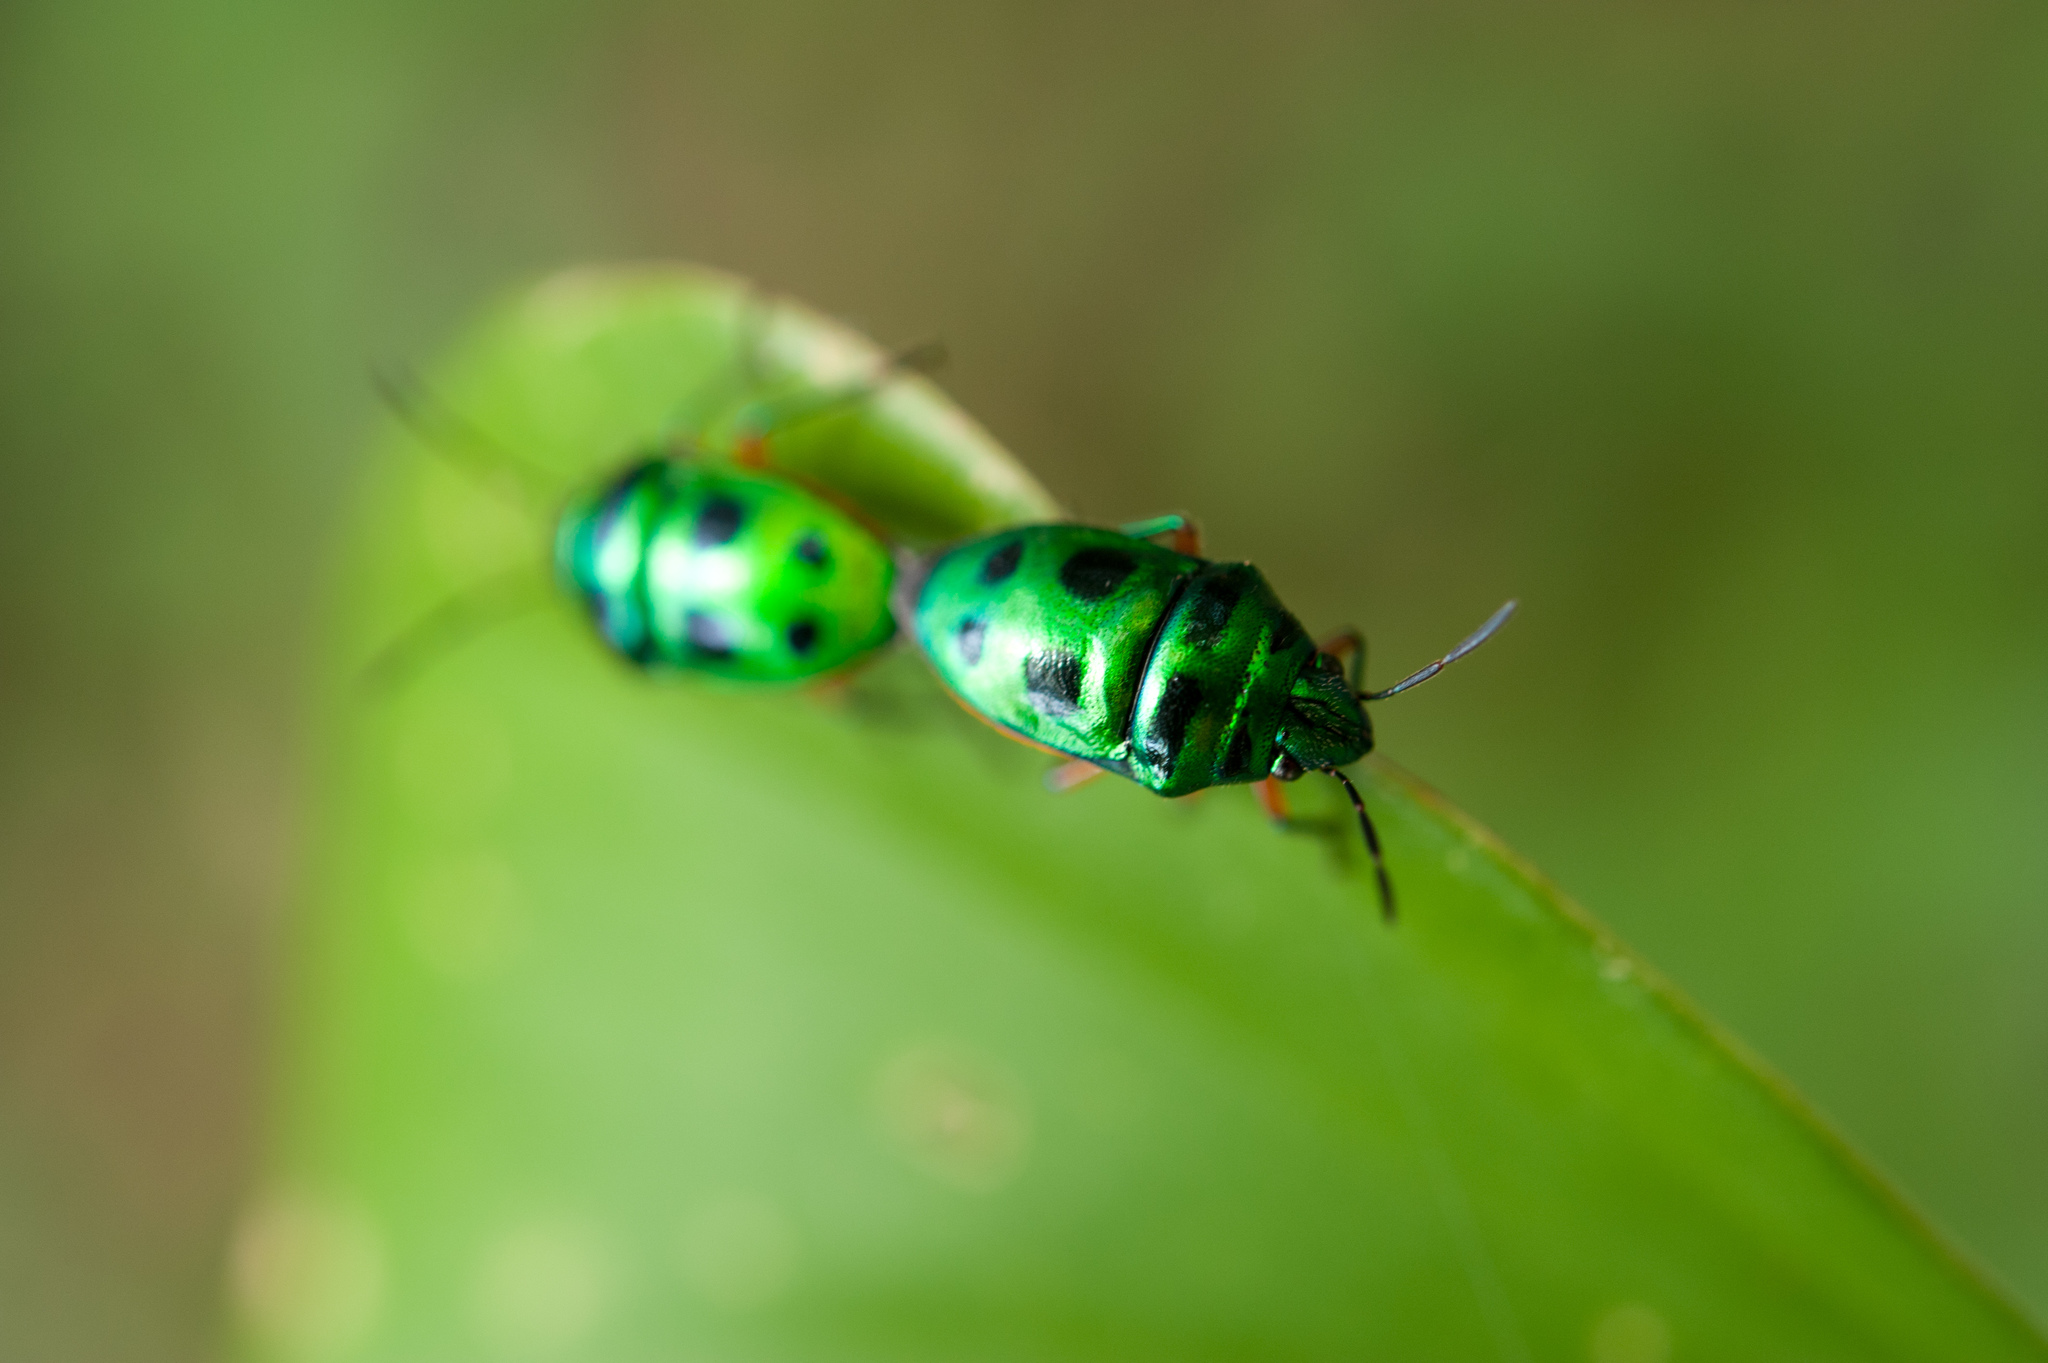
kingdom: Animalia
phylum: Arthropoda
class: Insecta
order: Hemiptera
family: Scutelleridae
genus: Lampromicra
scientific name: Lampromicra miyakona
